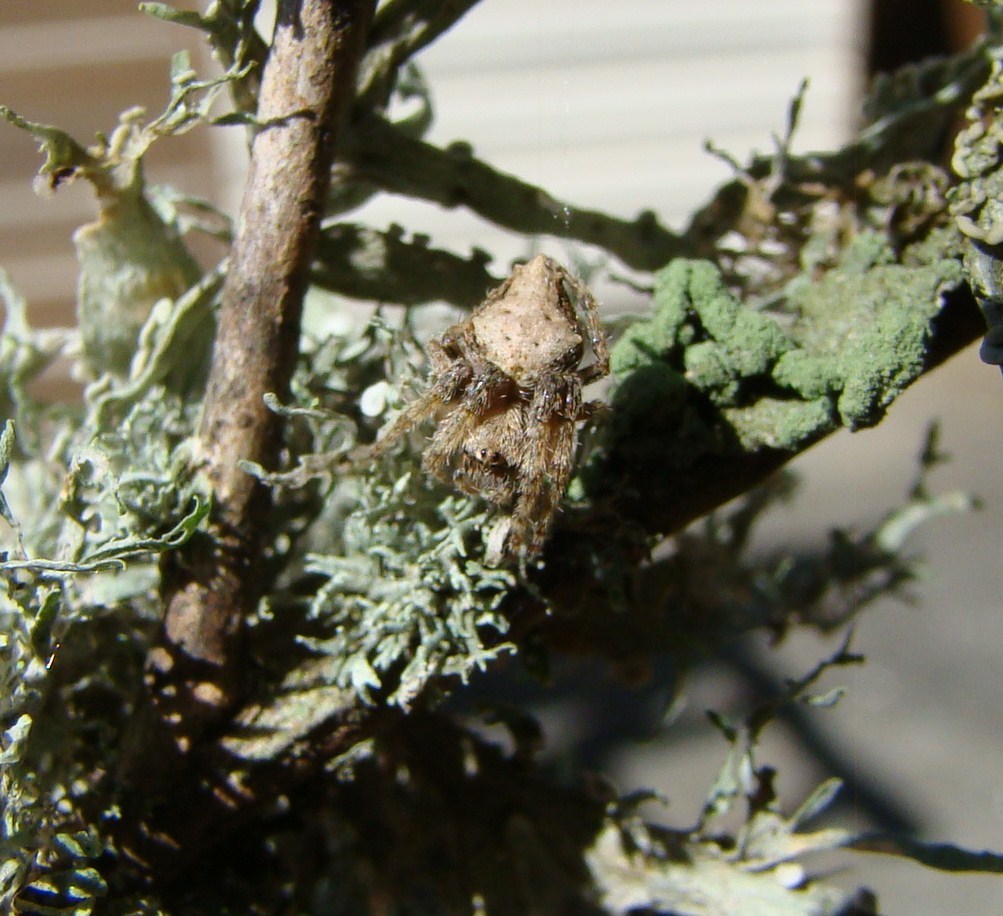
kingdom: Animalia
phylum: Arthropoda
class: Arachnida
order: Araneae
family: Araneidae
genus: Eriophora
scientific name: Eriophora pustulosa
